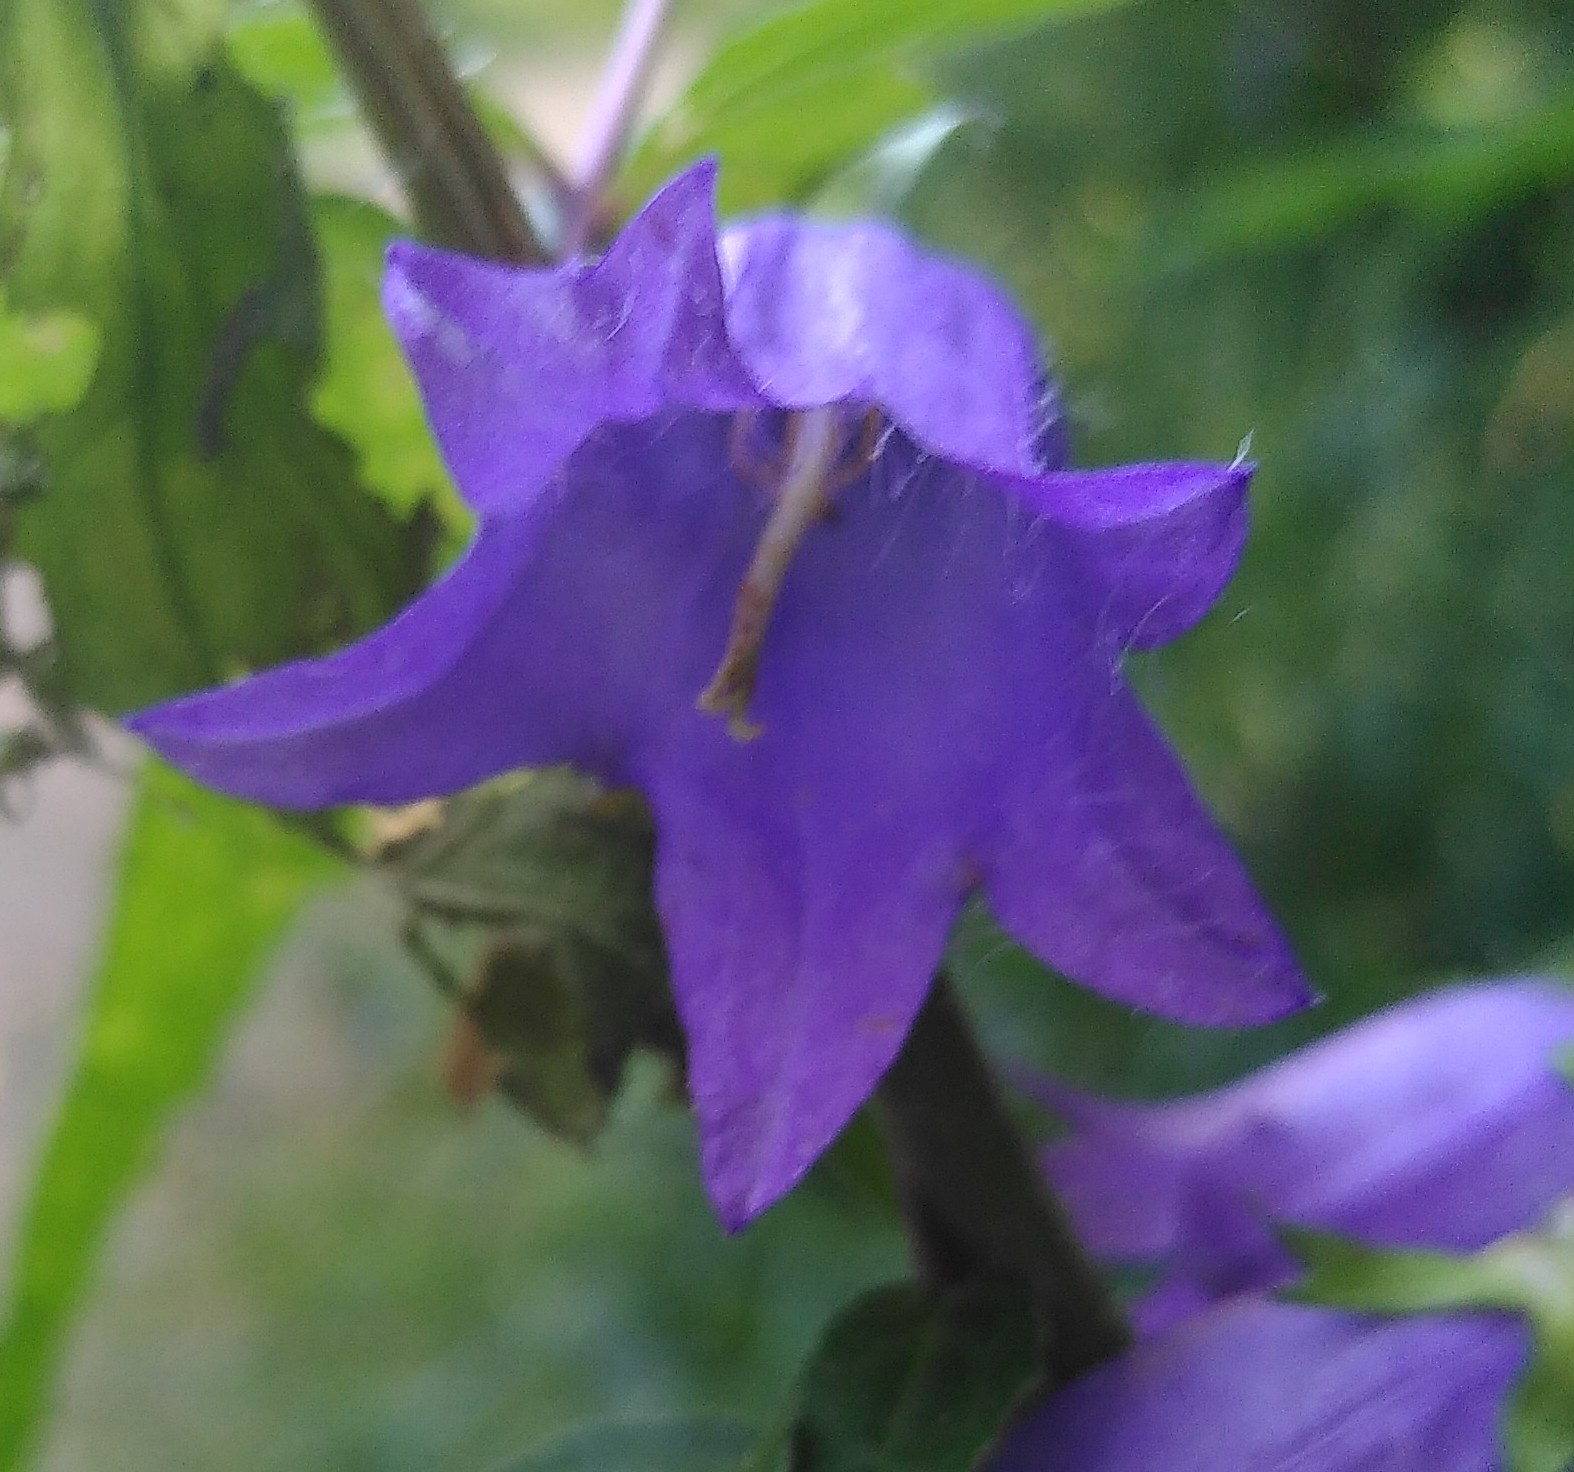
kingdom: Plantae
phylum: Tracheophyta
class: Magnoliopsida
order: Asterales
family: Campanulaceae
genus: Campanula
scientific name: Campanula trachelium
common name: Nettle-leaved bellflower
